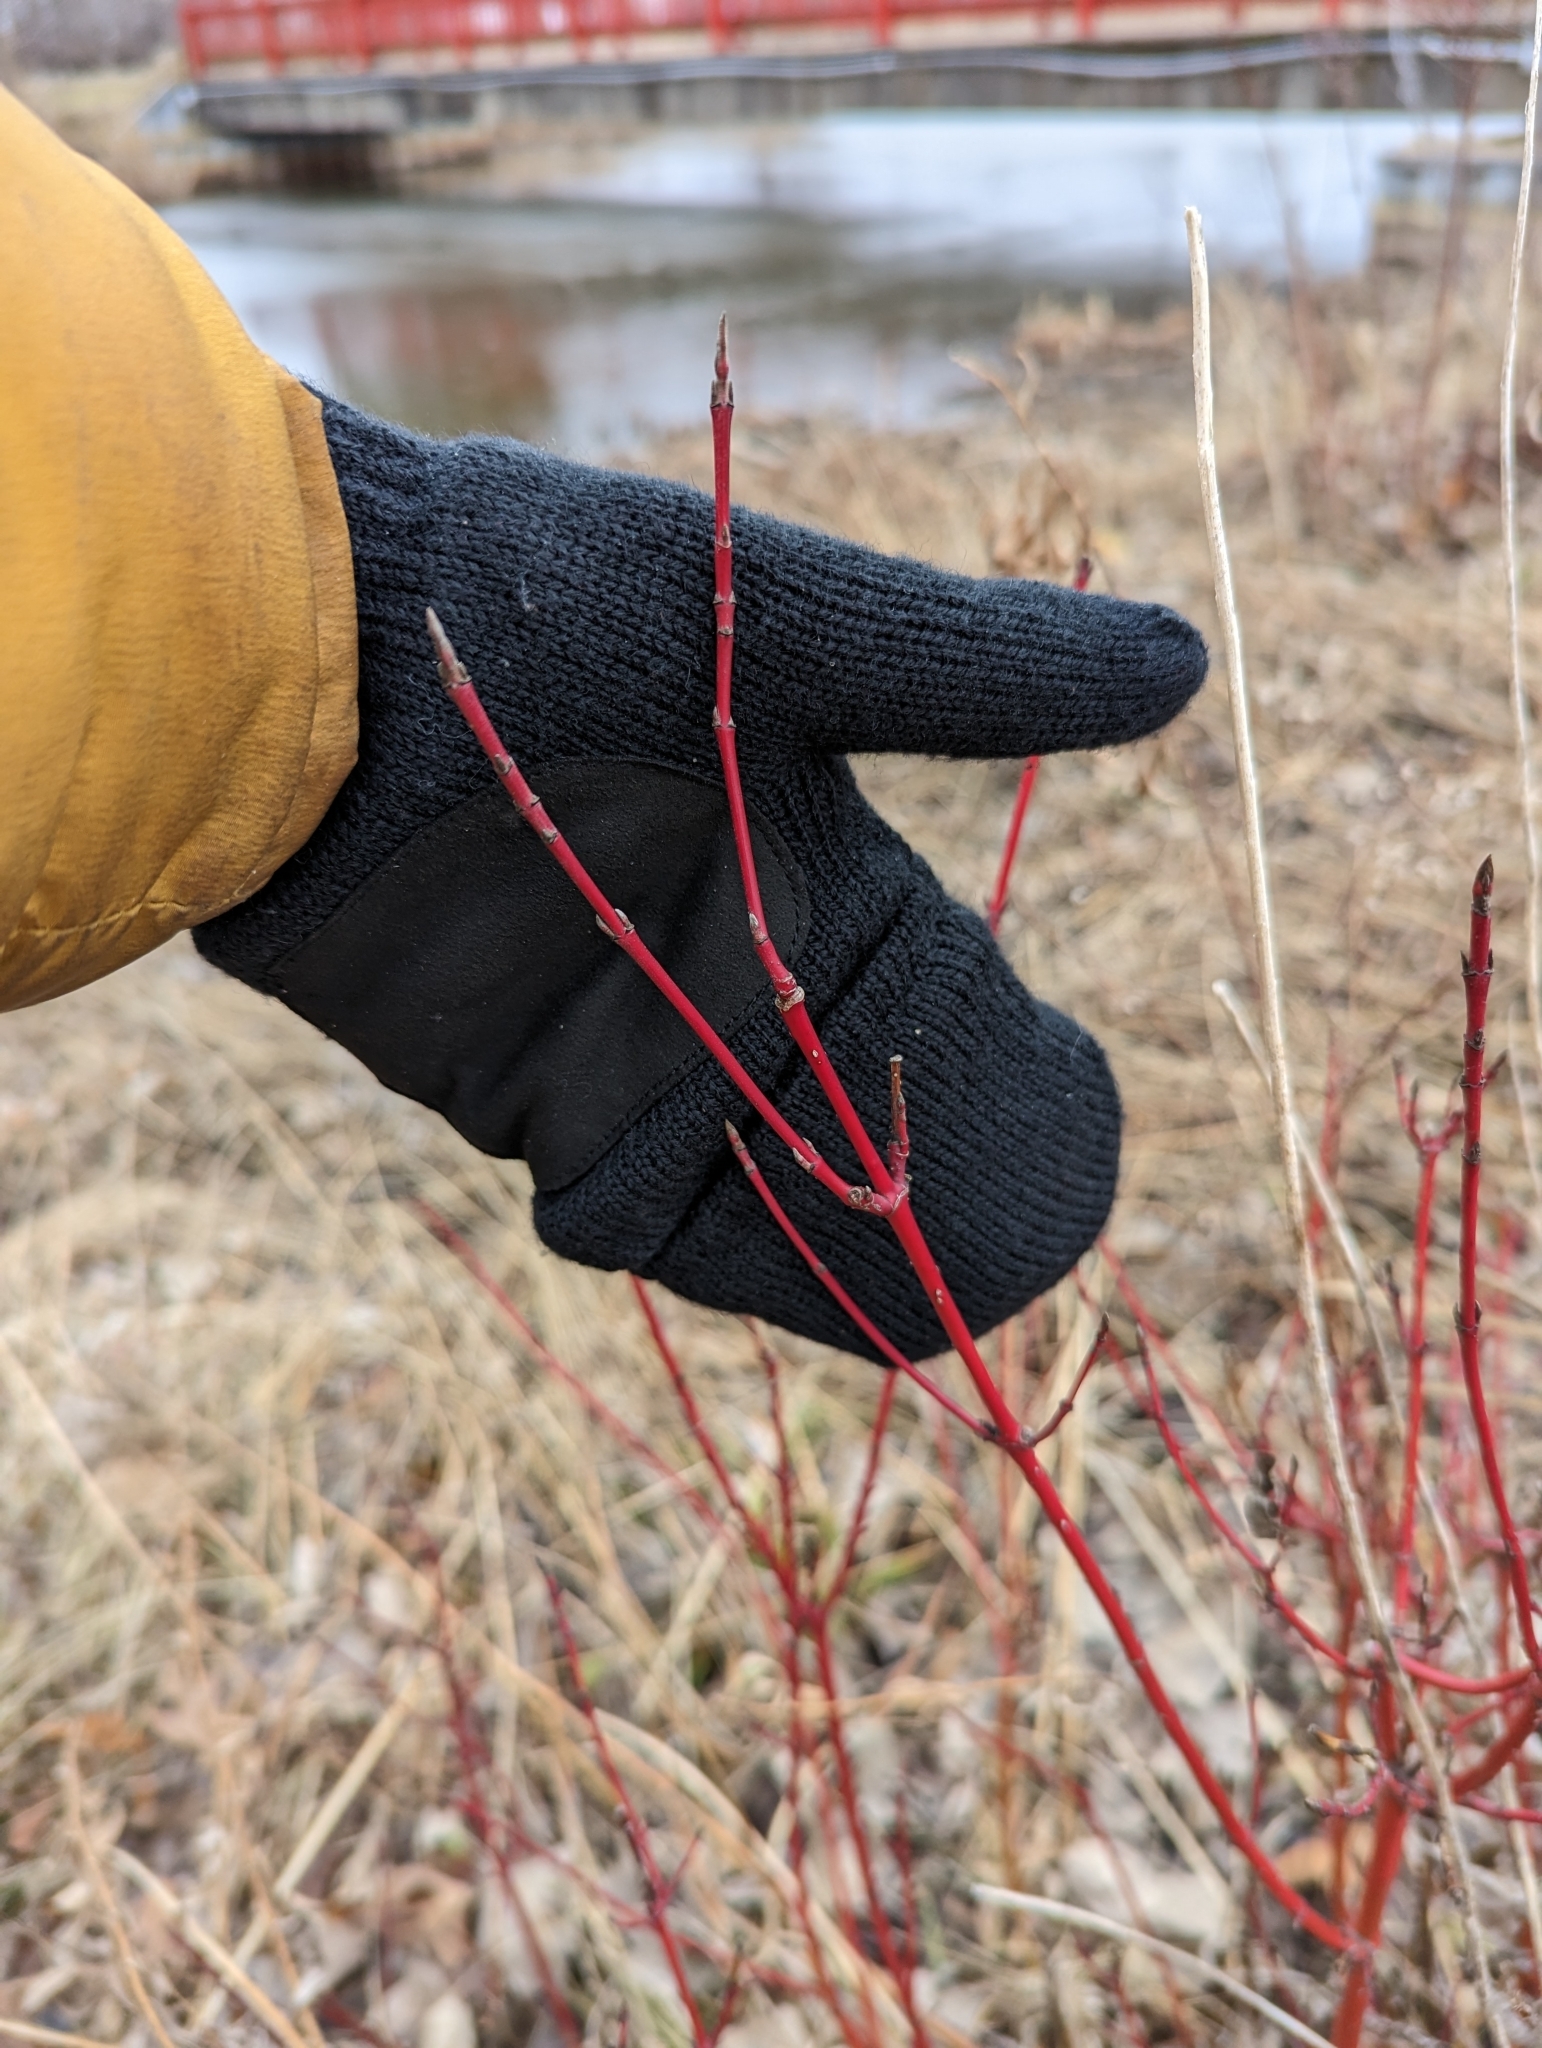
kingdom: Plantae
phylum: Tracheophyta
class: Magnoliopsida
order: Cornales
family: Cornaceae
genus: Cornus
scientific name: Cornus sericea
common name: Red-osier dogwood
